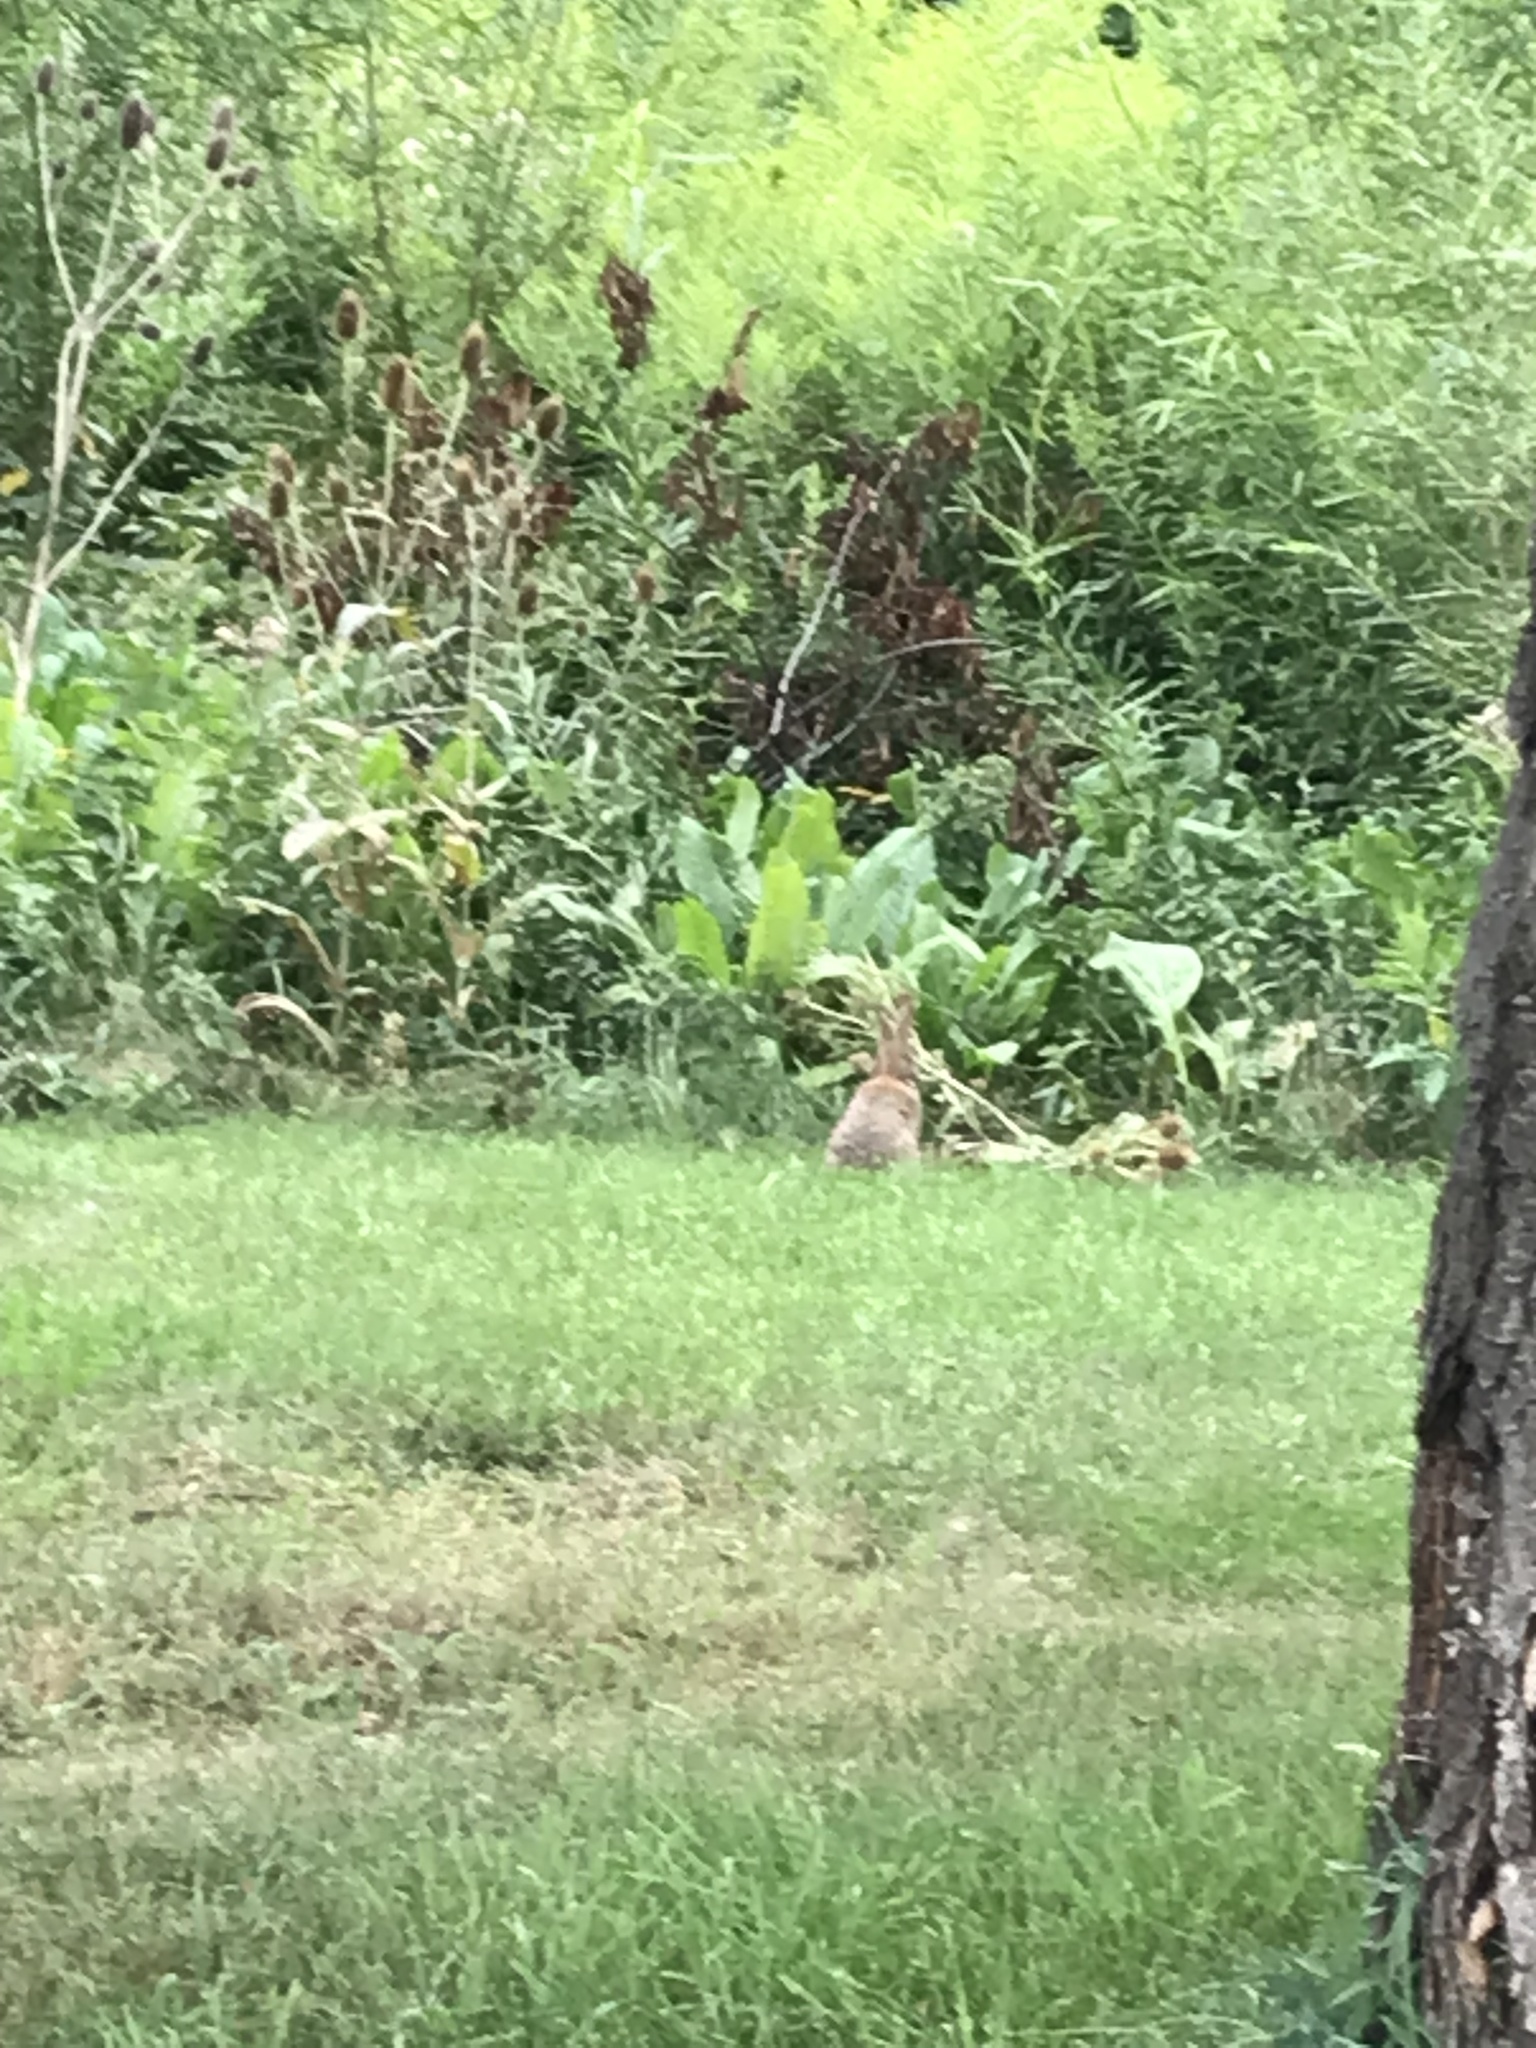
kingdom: Animalia
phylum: Chordata
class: Mammalia
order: Lagomorpha
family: Leporidae
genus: Sylvilagus
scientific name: Sylvilagus floridanus
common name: Eastern cottontail
